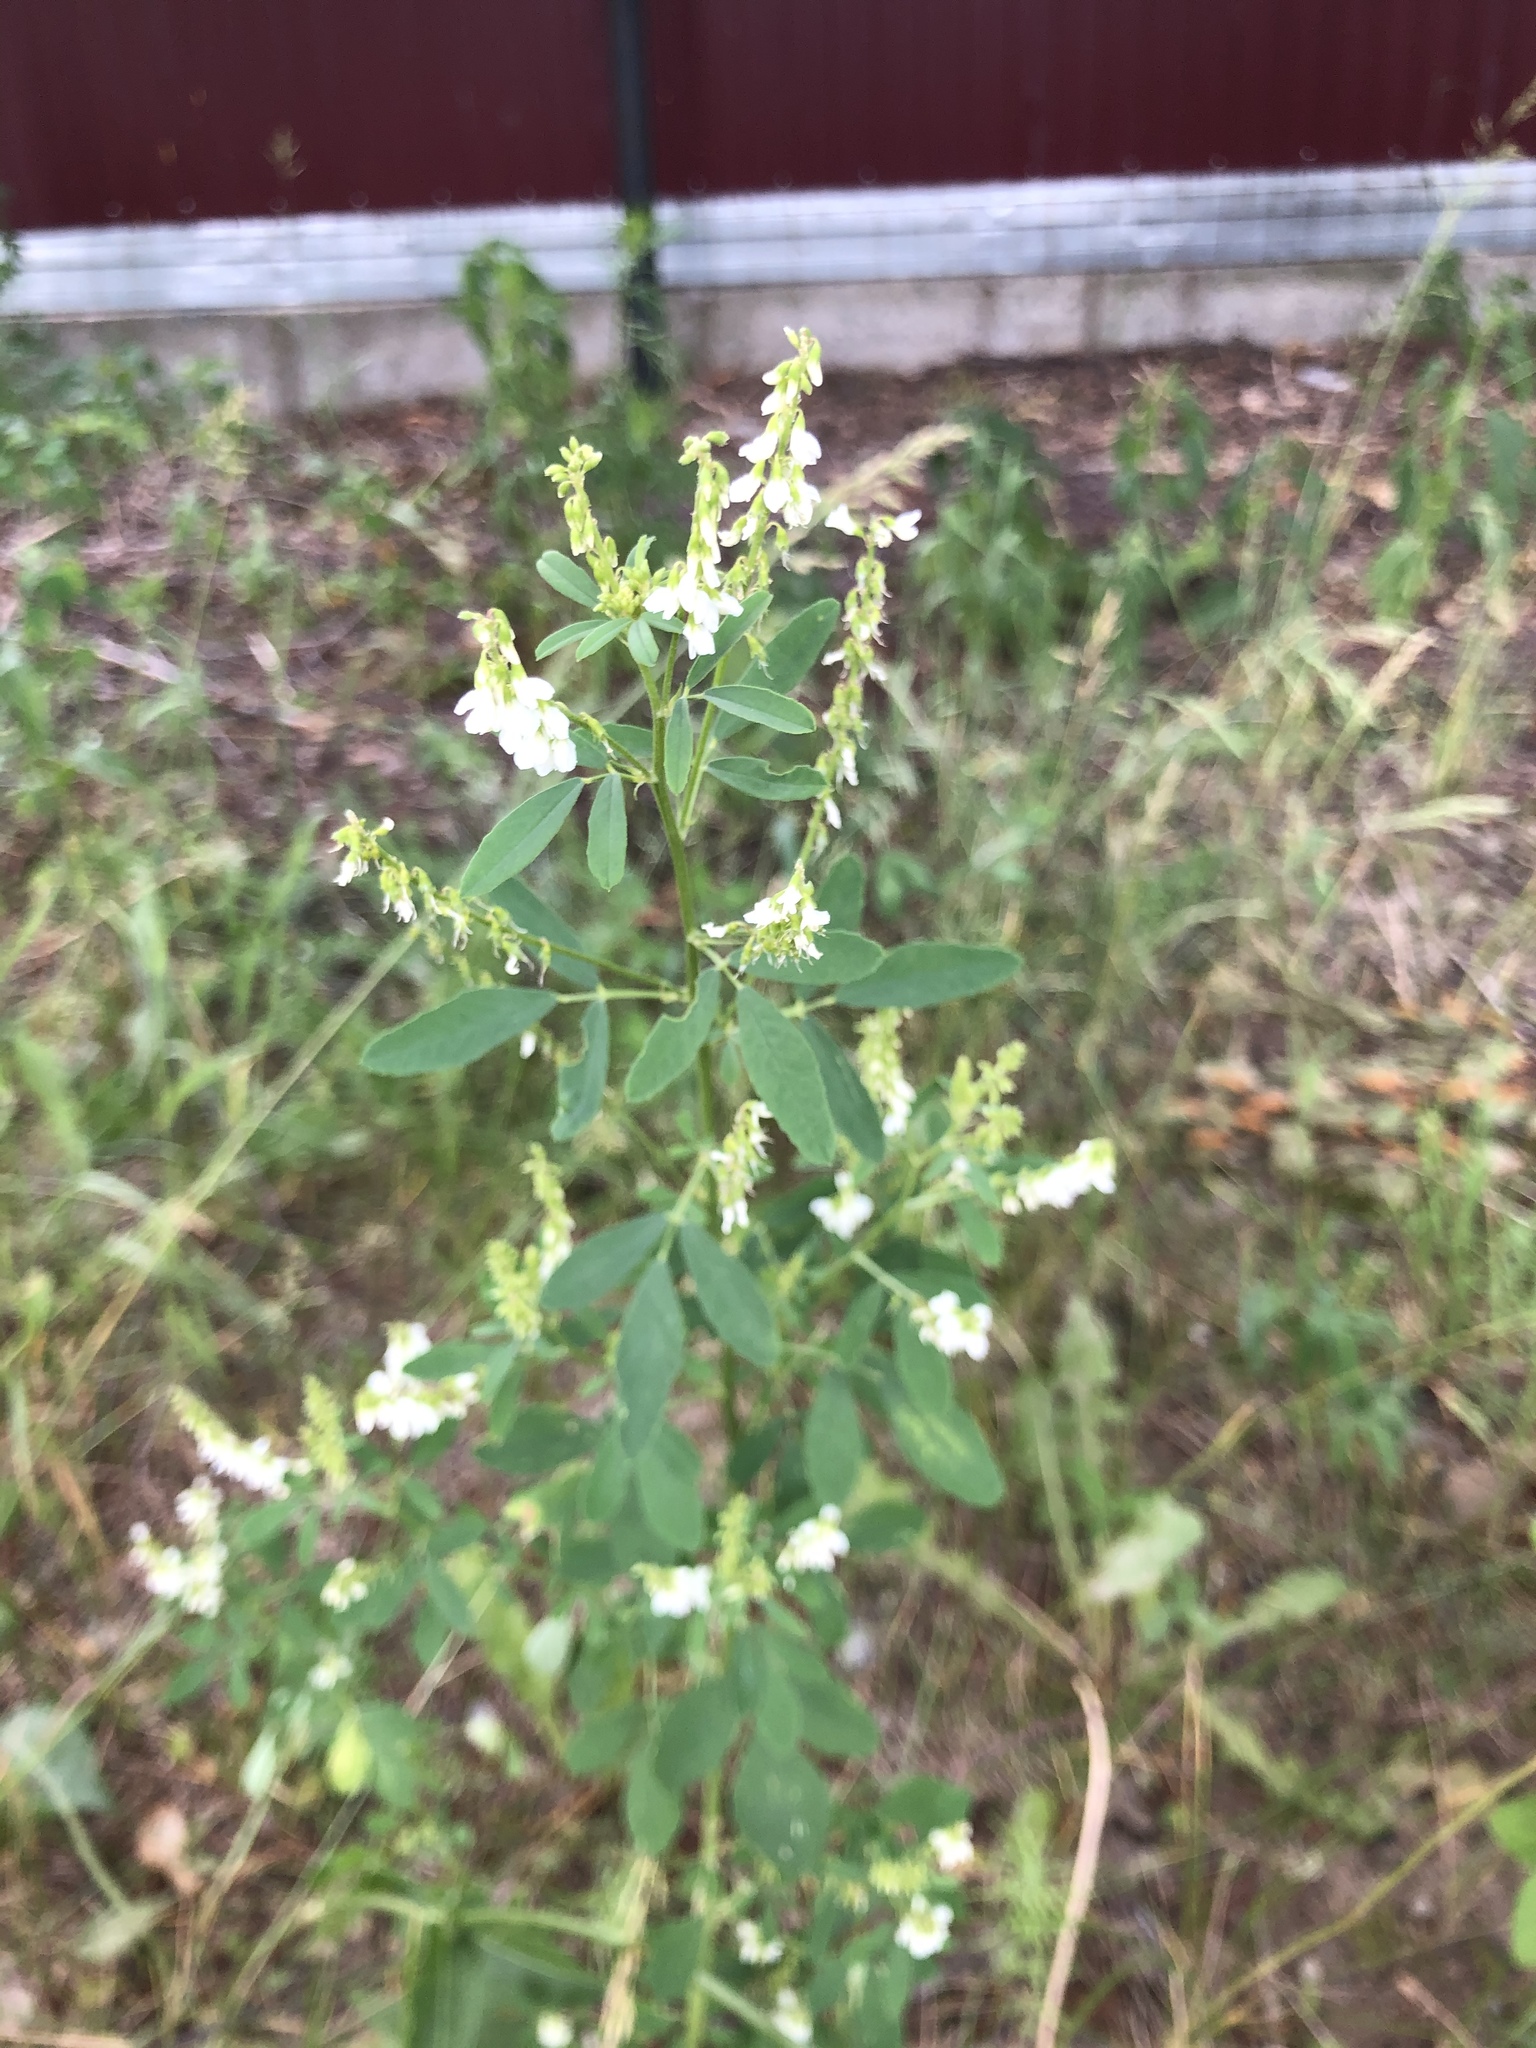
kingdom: Plantae
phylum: Tracheophyta
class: Magnoliopsida
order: Fabales
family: Fabaceae
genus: Melilotus
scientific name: Melilotus albus
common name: White melilot
